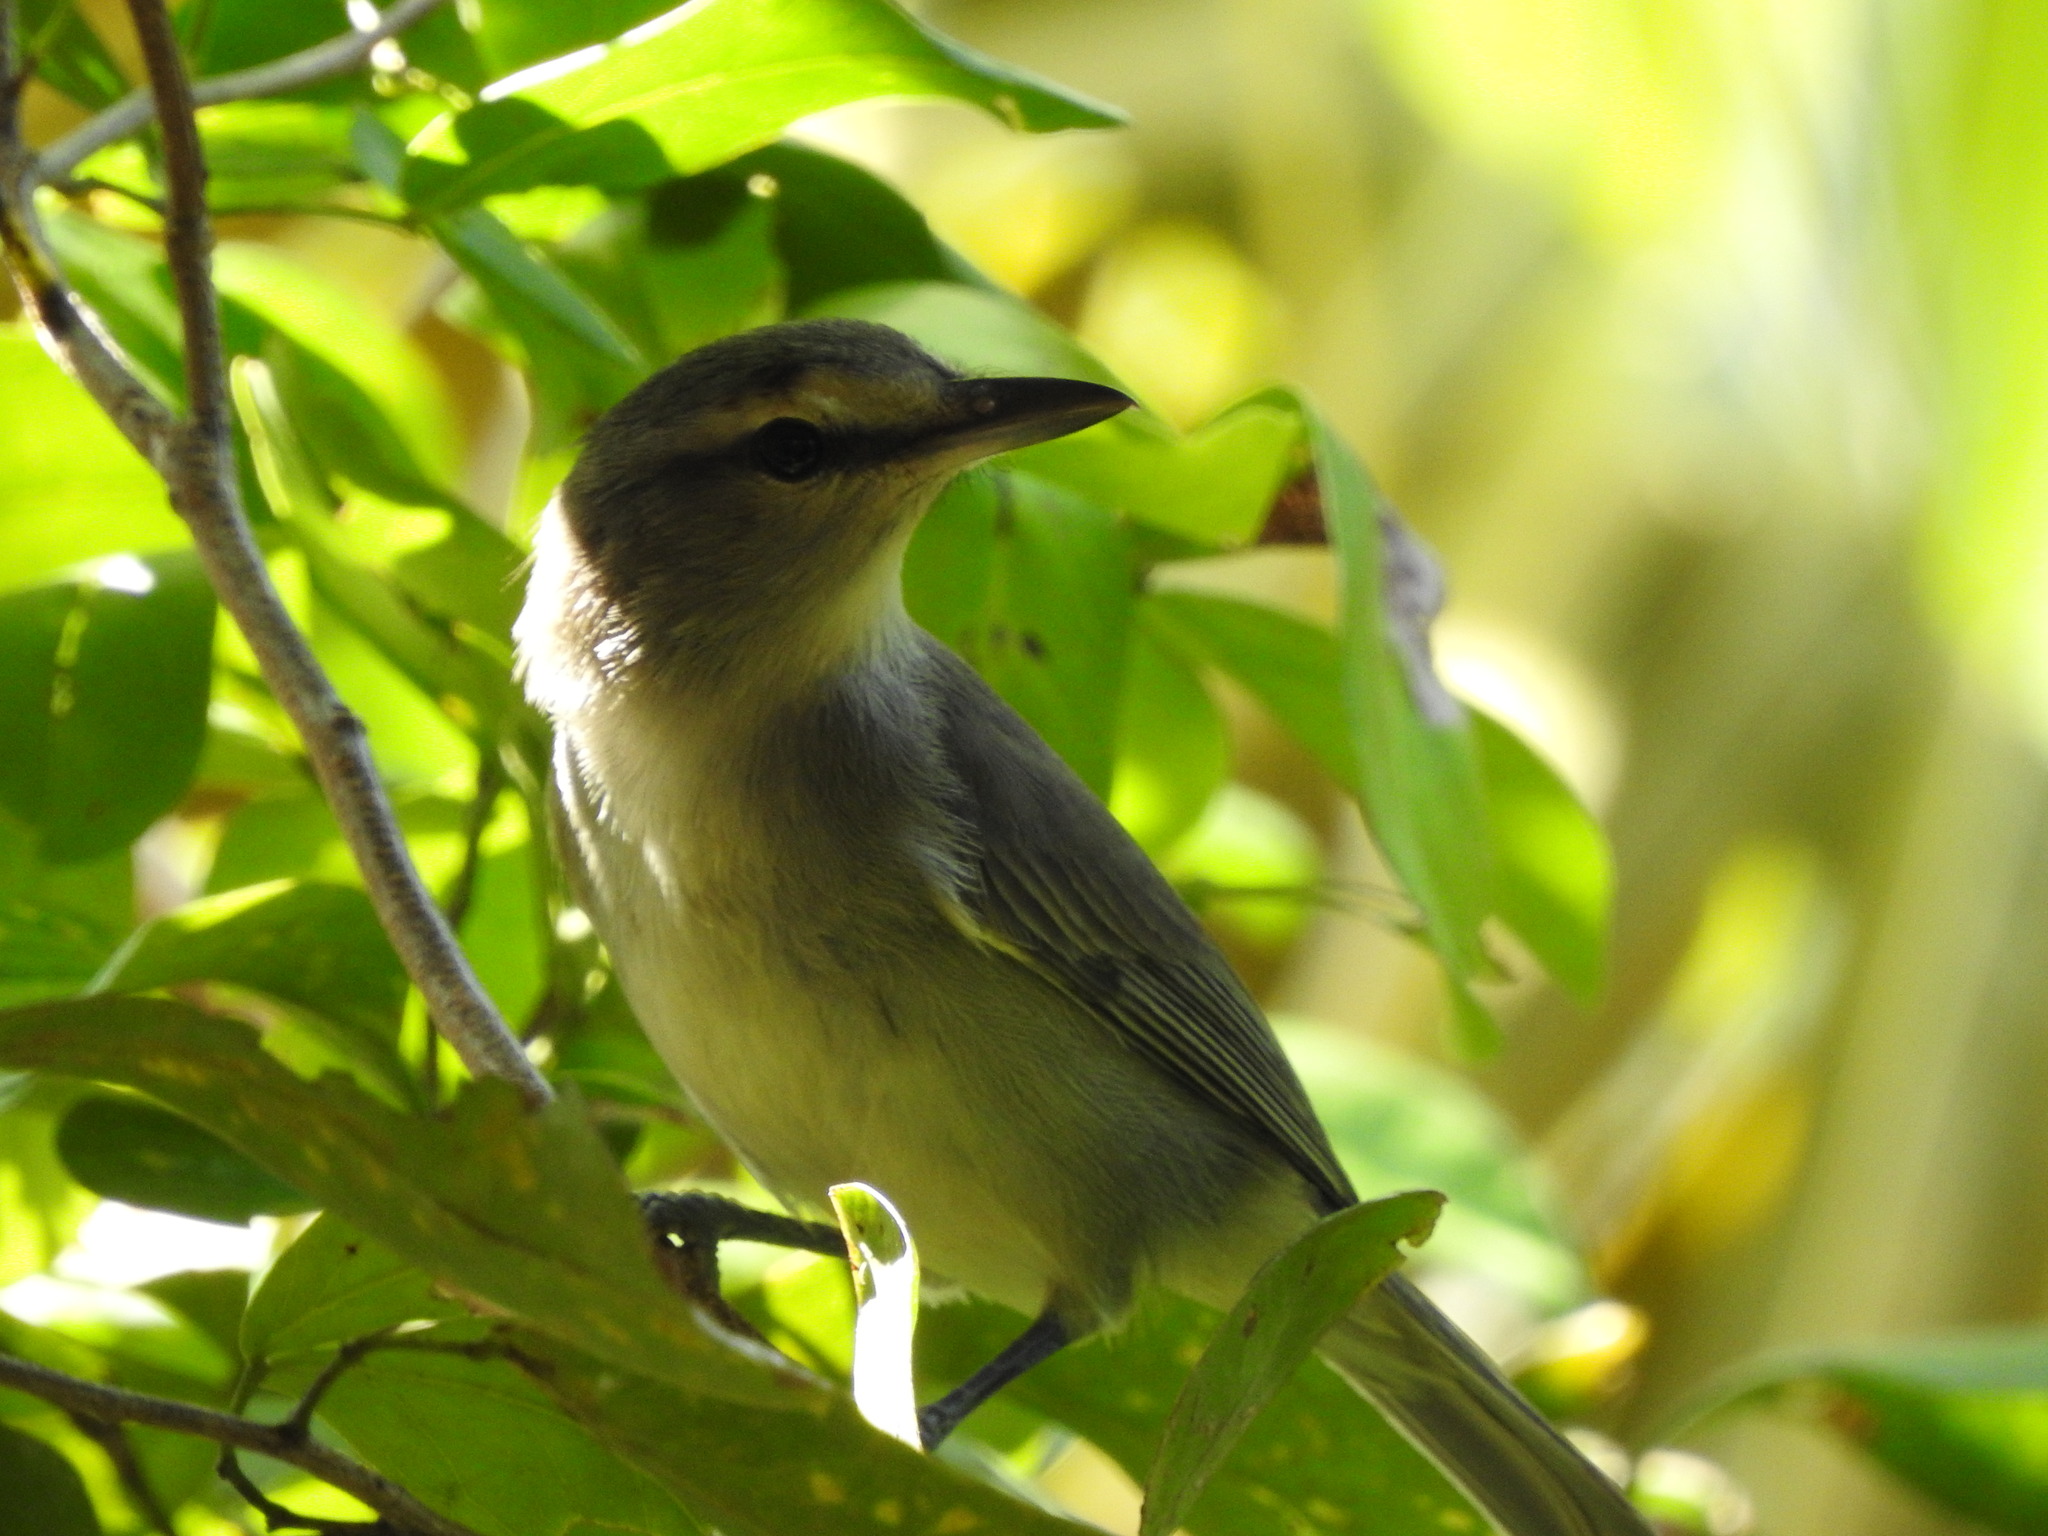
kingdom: Animalia
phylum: Chordata
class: Aves
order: Passeriformes
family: Vireonidae
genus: Vireo
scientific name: Vireo magister
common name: Yucatan vireo
